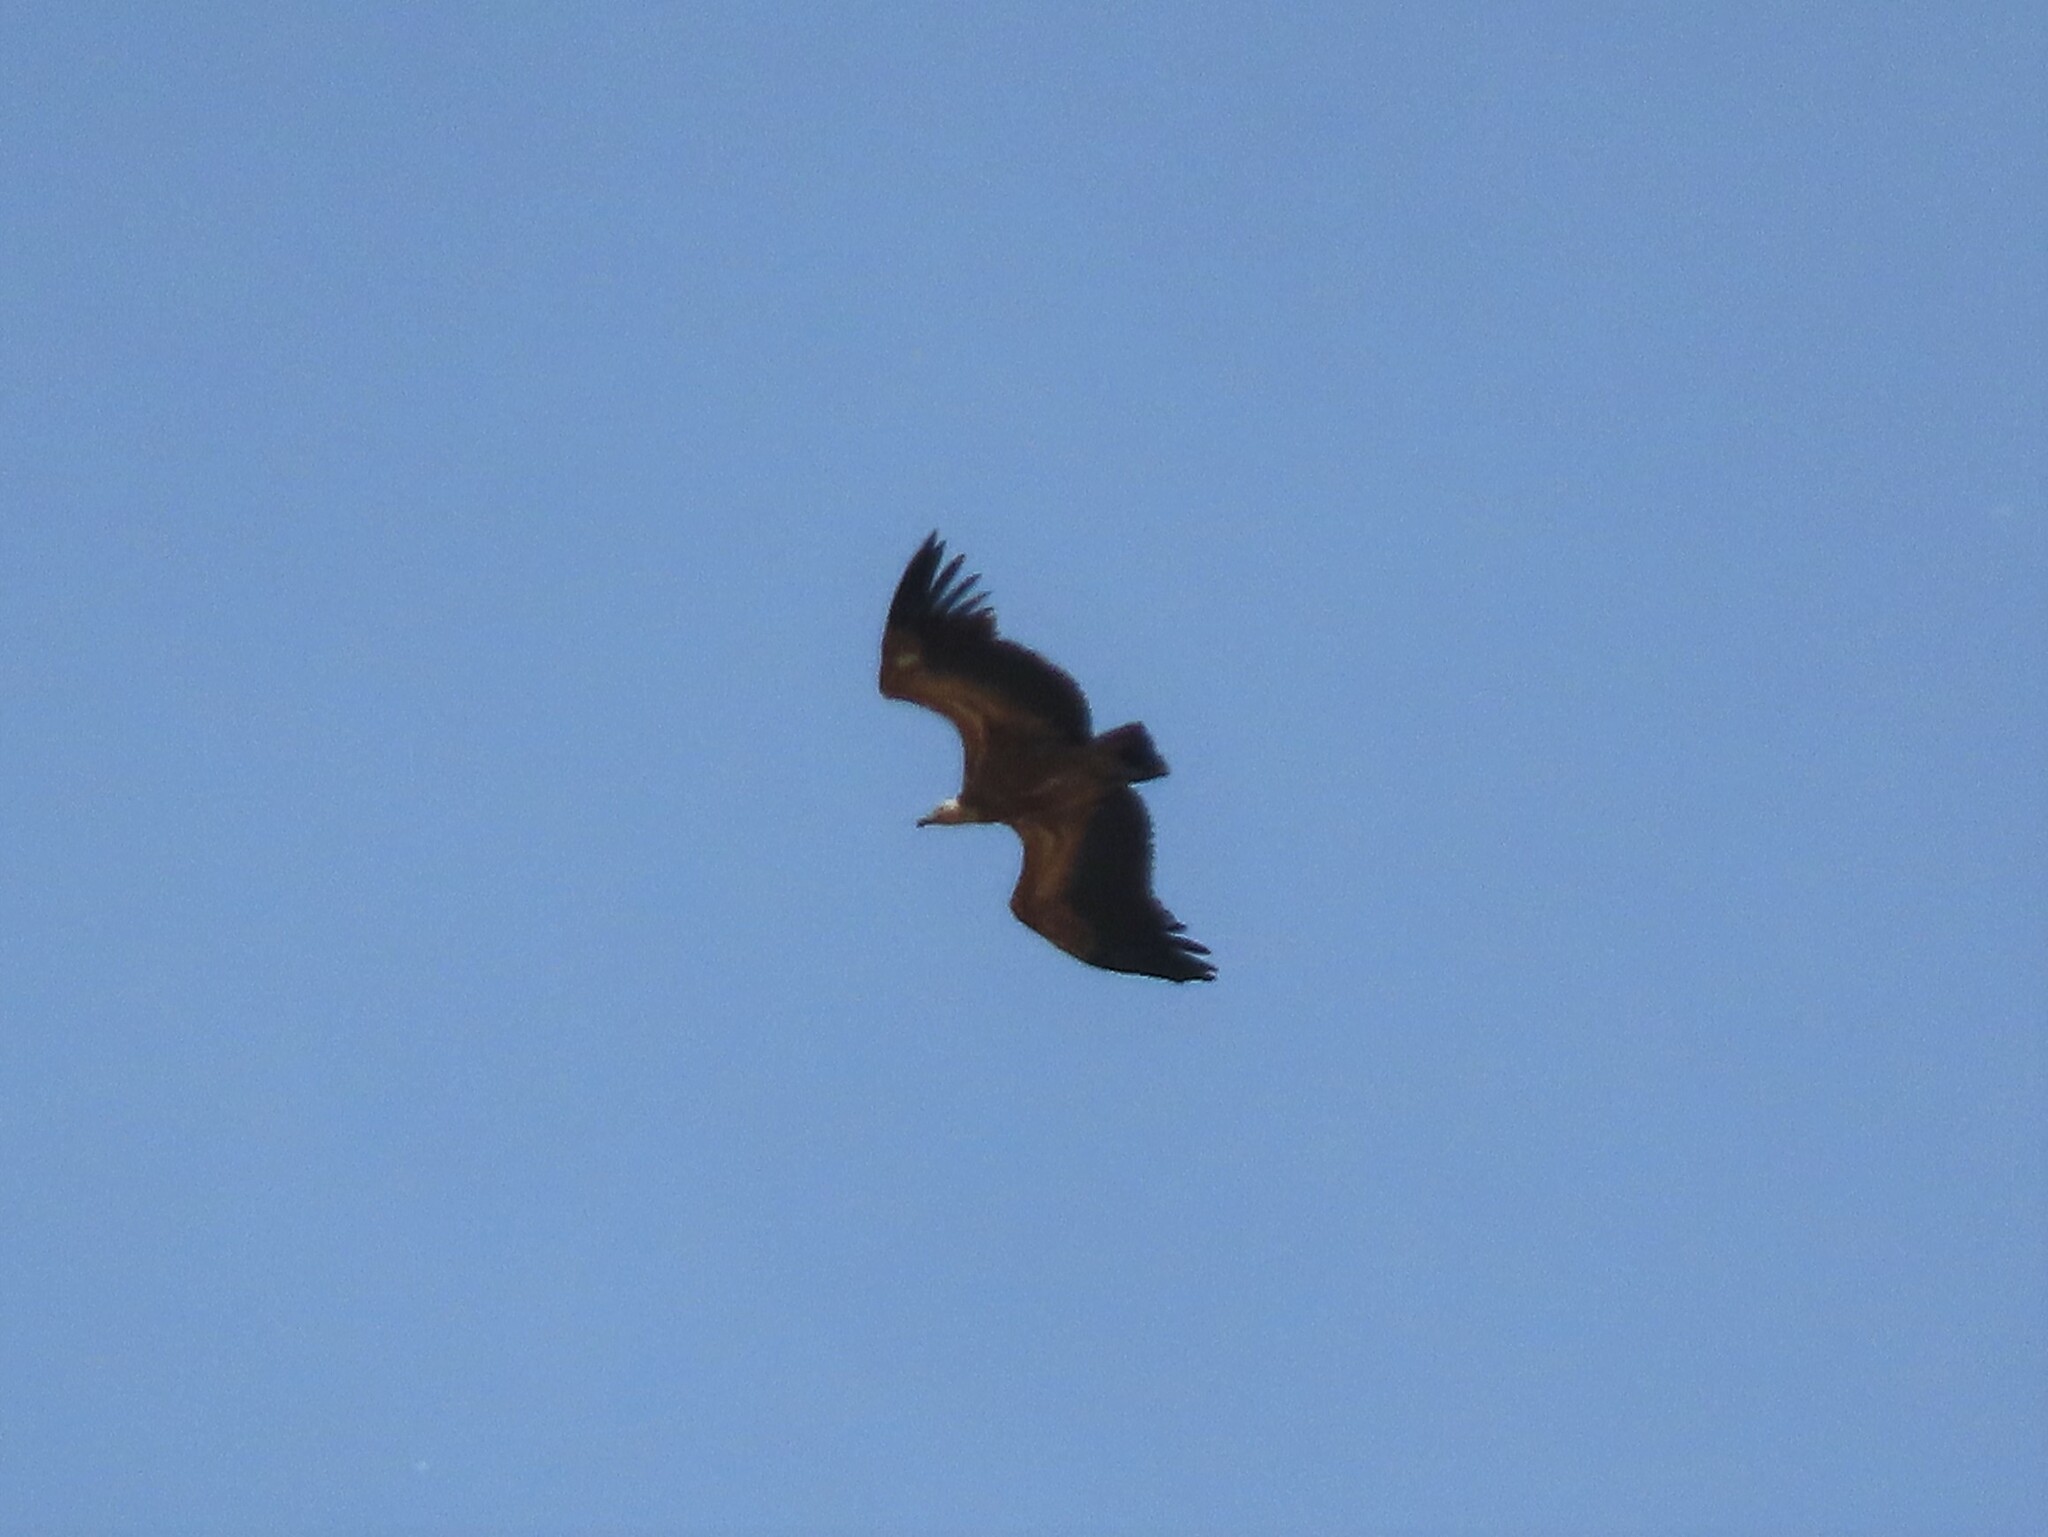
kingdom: Animalia
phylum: Chordata
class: Aves
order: Accipitriformes
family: Accipitridae
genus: Gyps
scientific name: Gyps fulvus
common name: Griffon vulture
